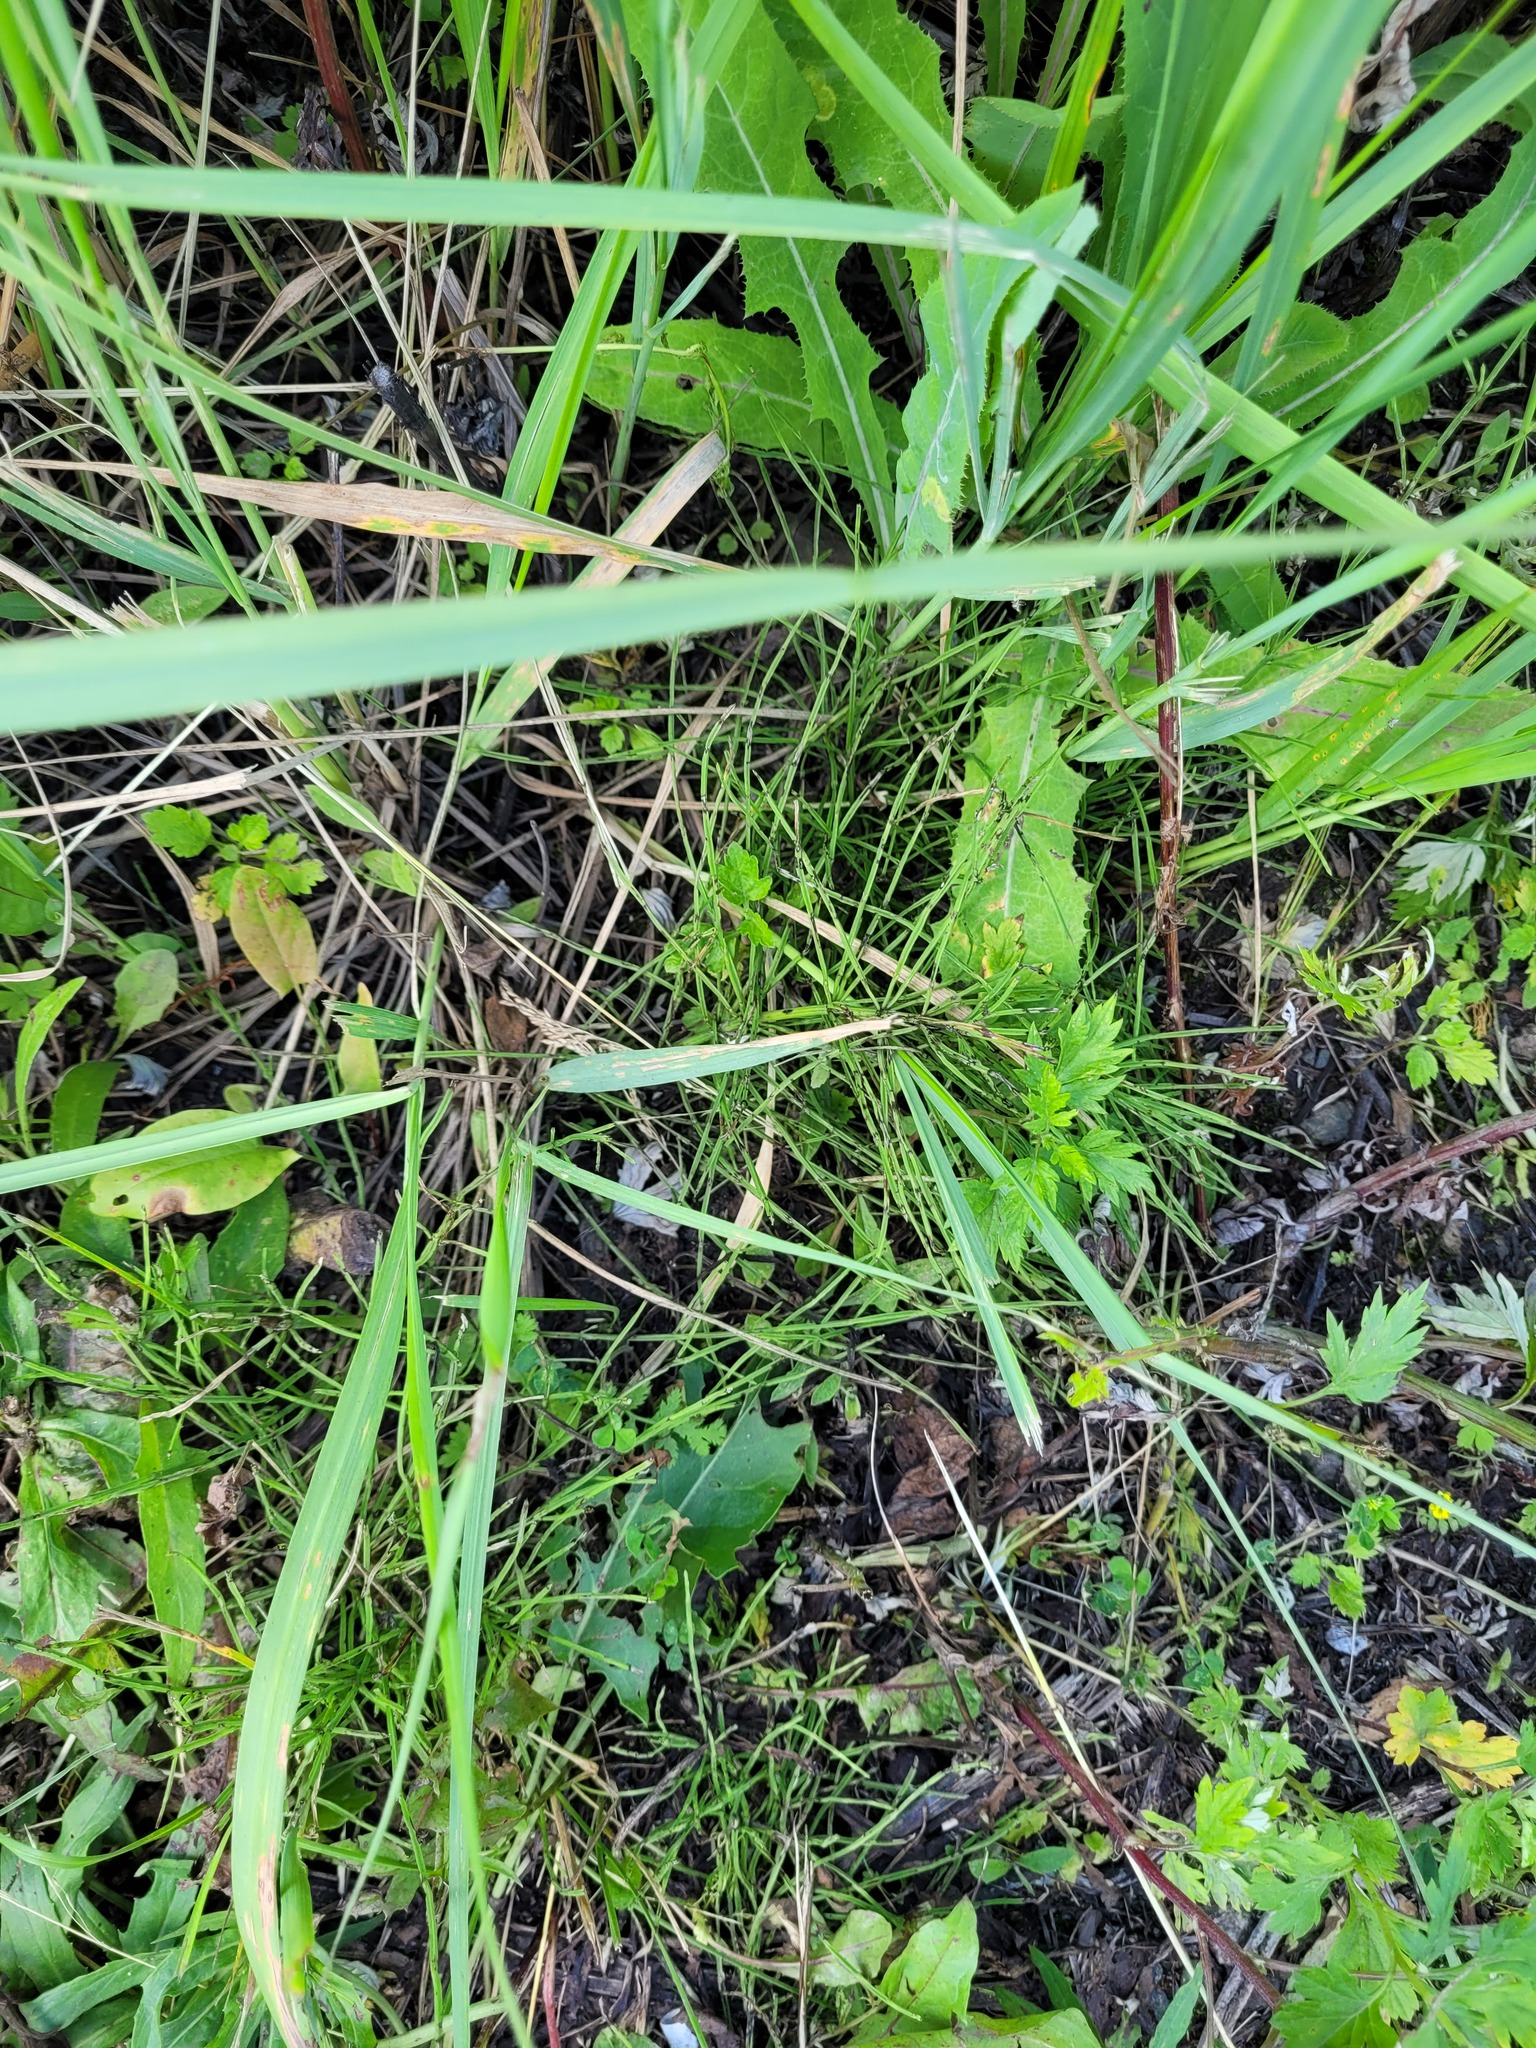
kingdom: Plantae
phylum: Tracheophyta
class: Polypodiopsida
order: Equisetales
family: Equisetaceae
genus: Equisetum
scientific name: Equisetum arvense
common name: Field horsetail
